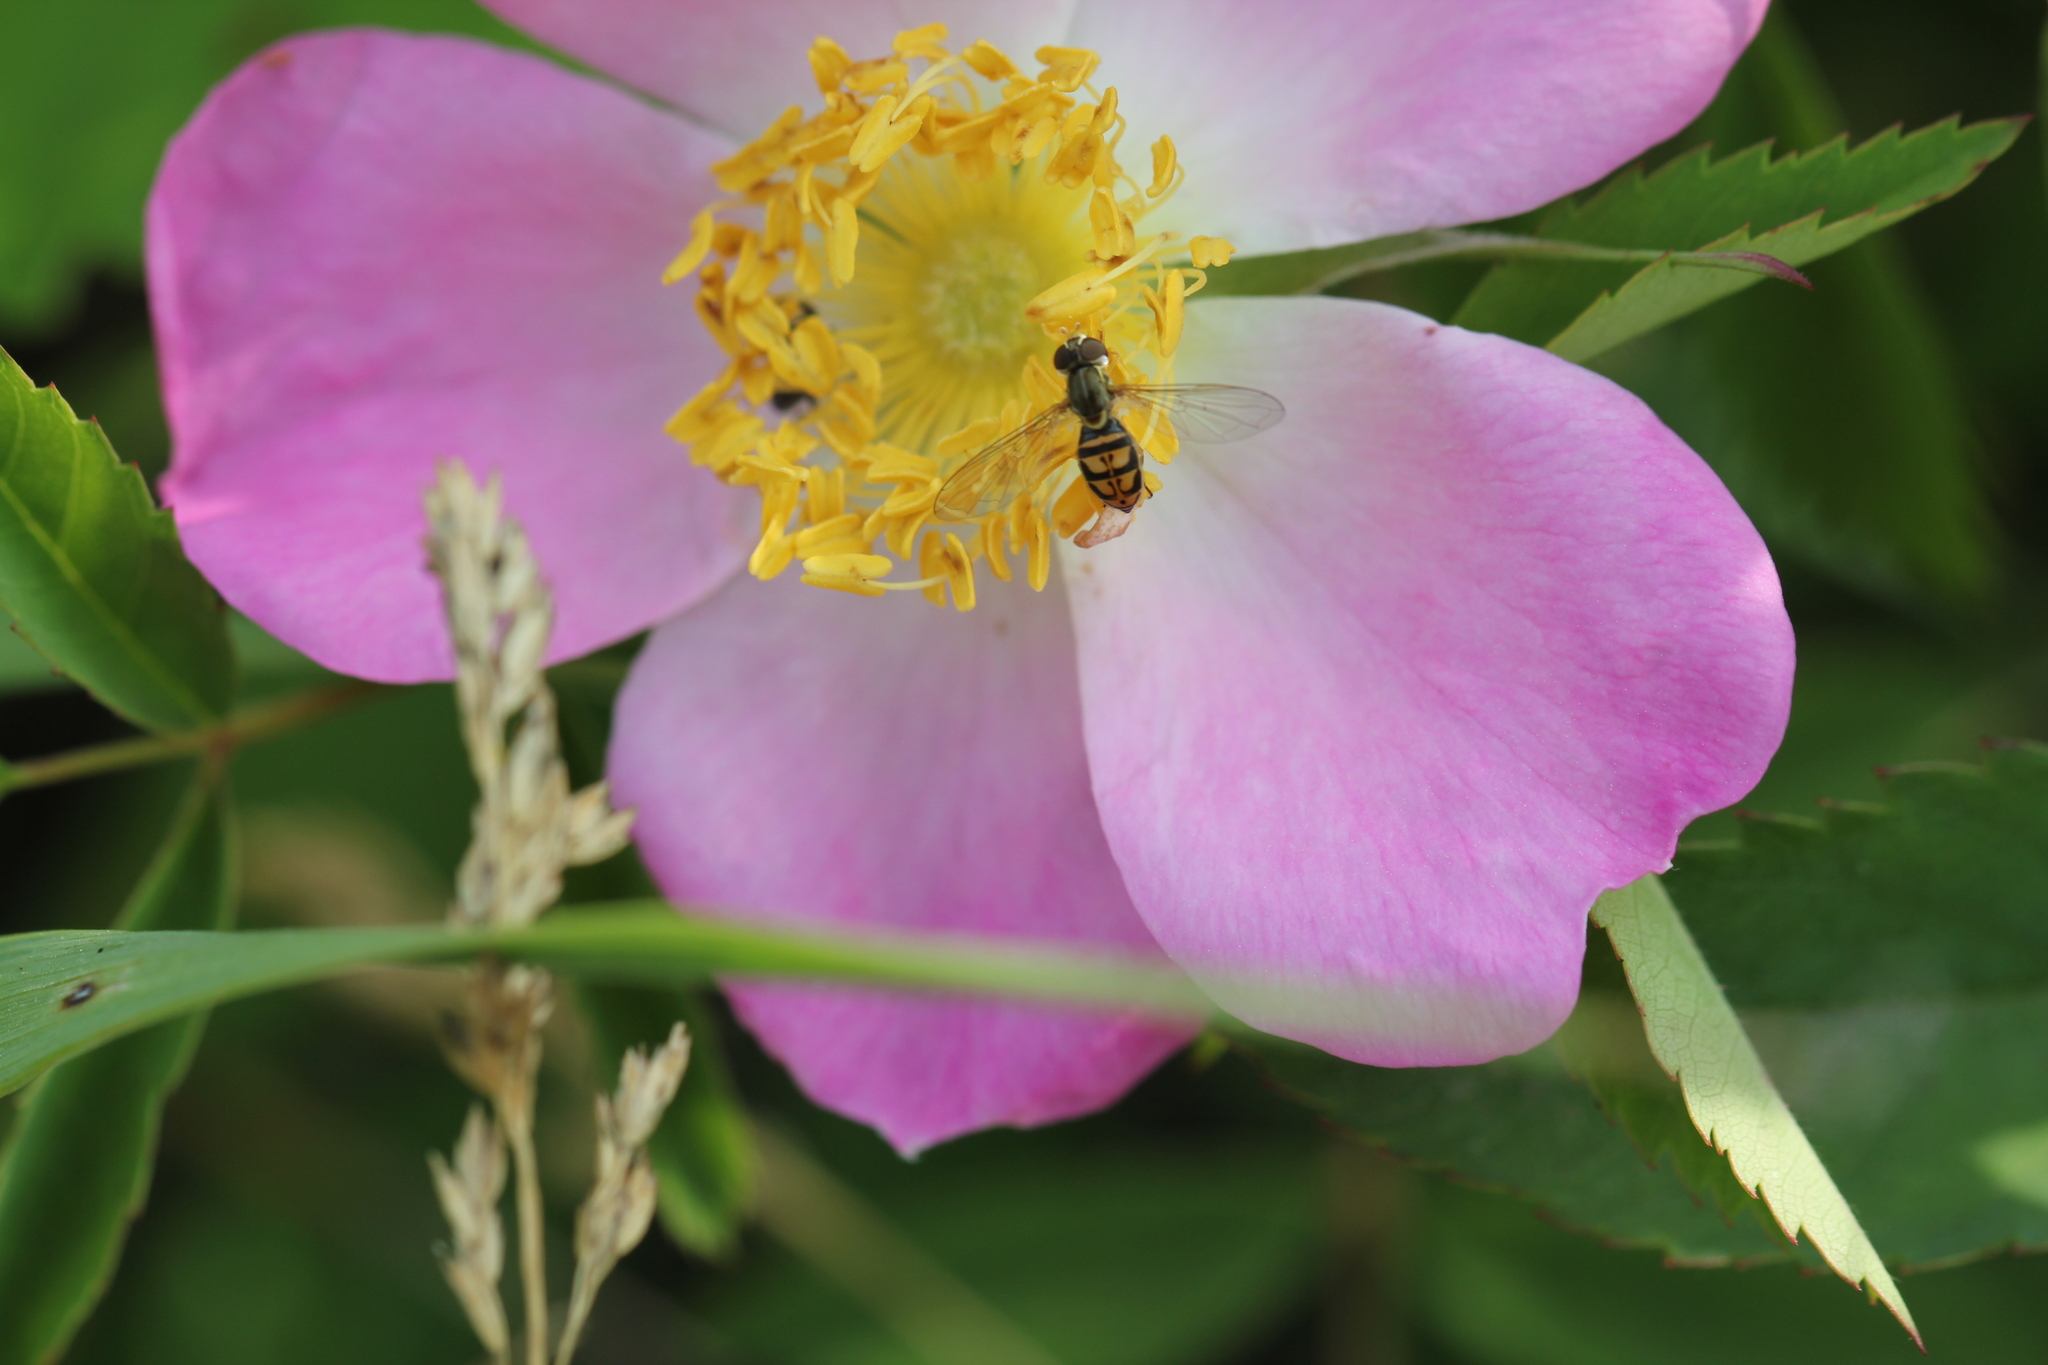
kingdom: Animalia
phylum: Arthropoda
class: Insecta
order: Diptera
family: Syrphidae
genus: Toxomerus
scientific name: Toxomerus marginatus
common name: Syrphid fly
